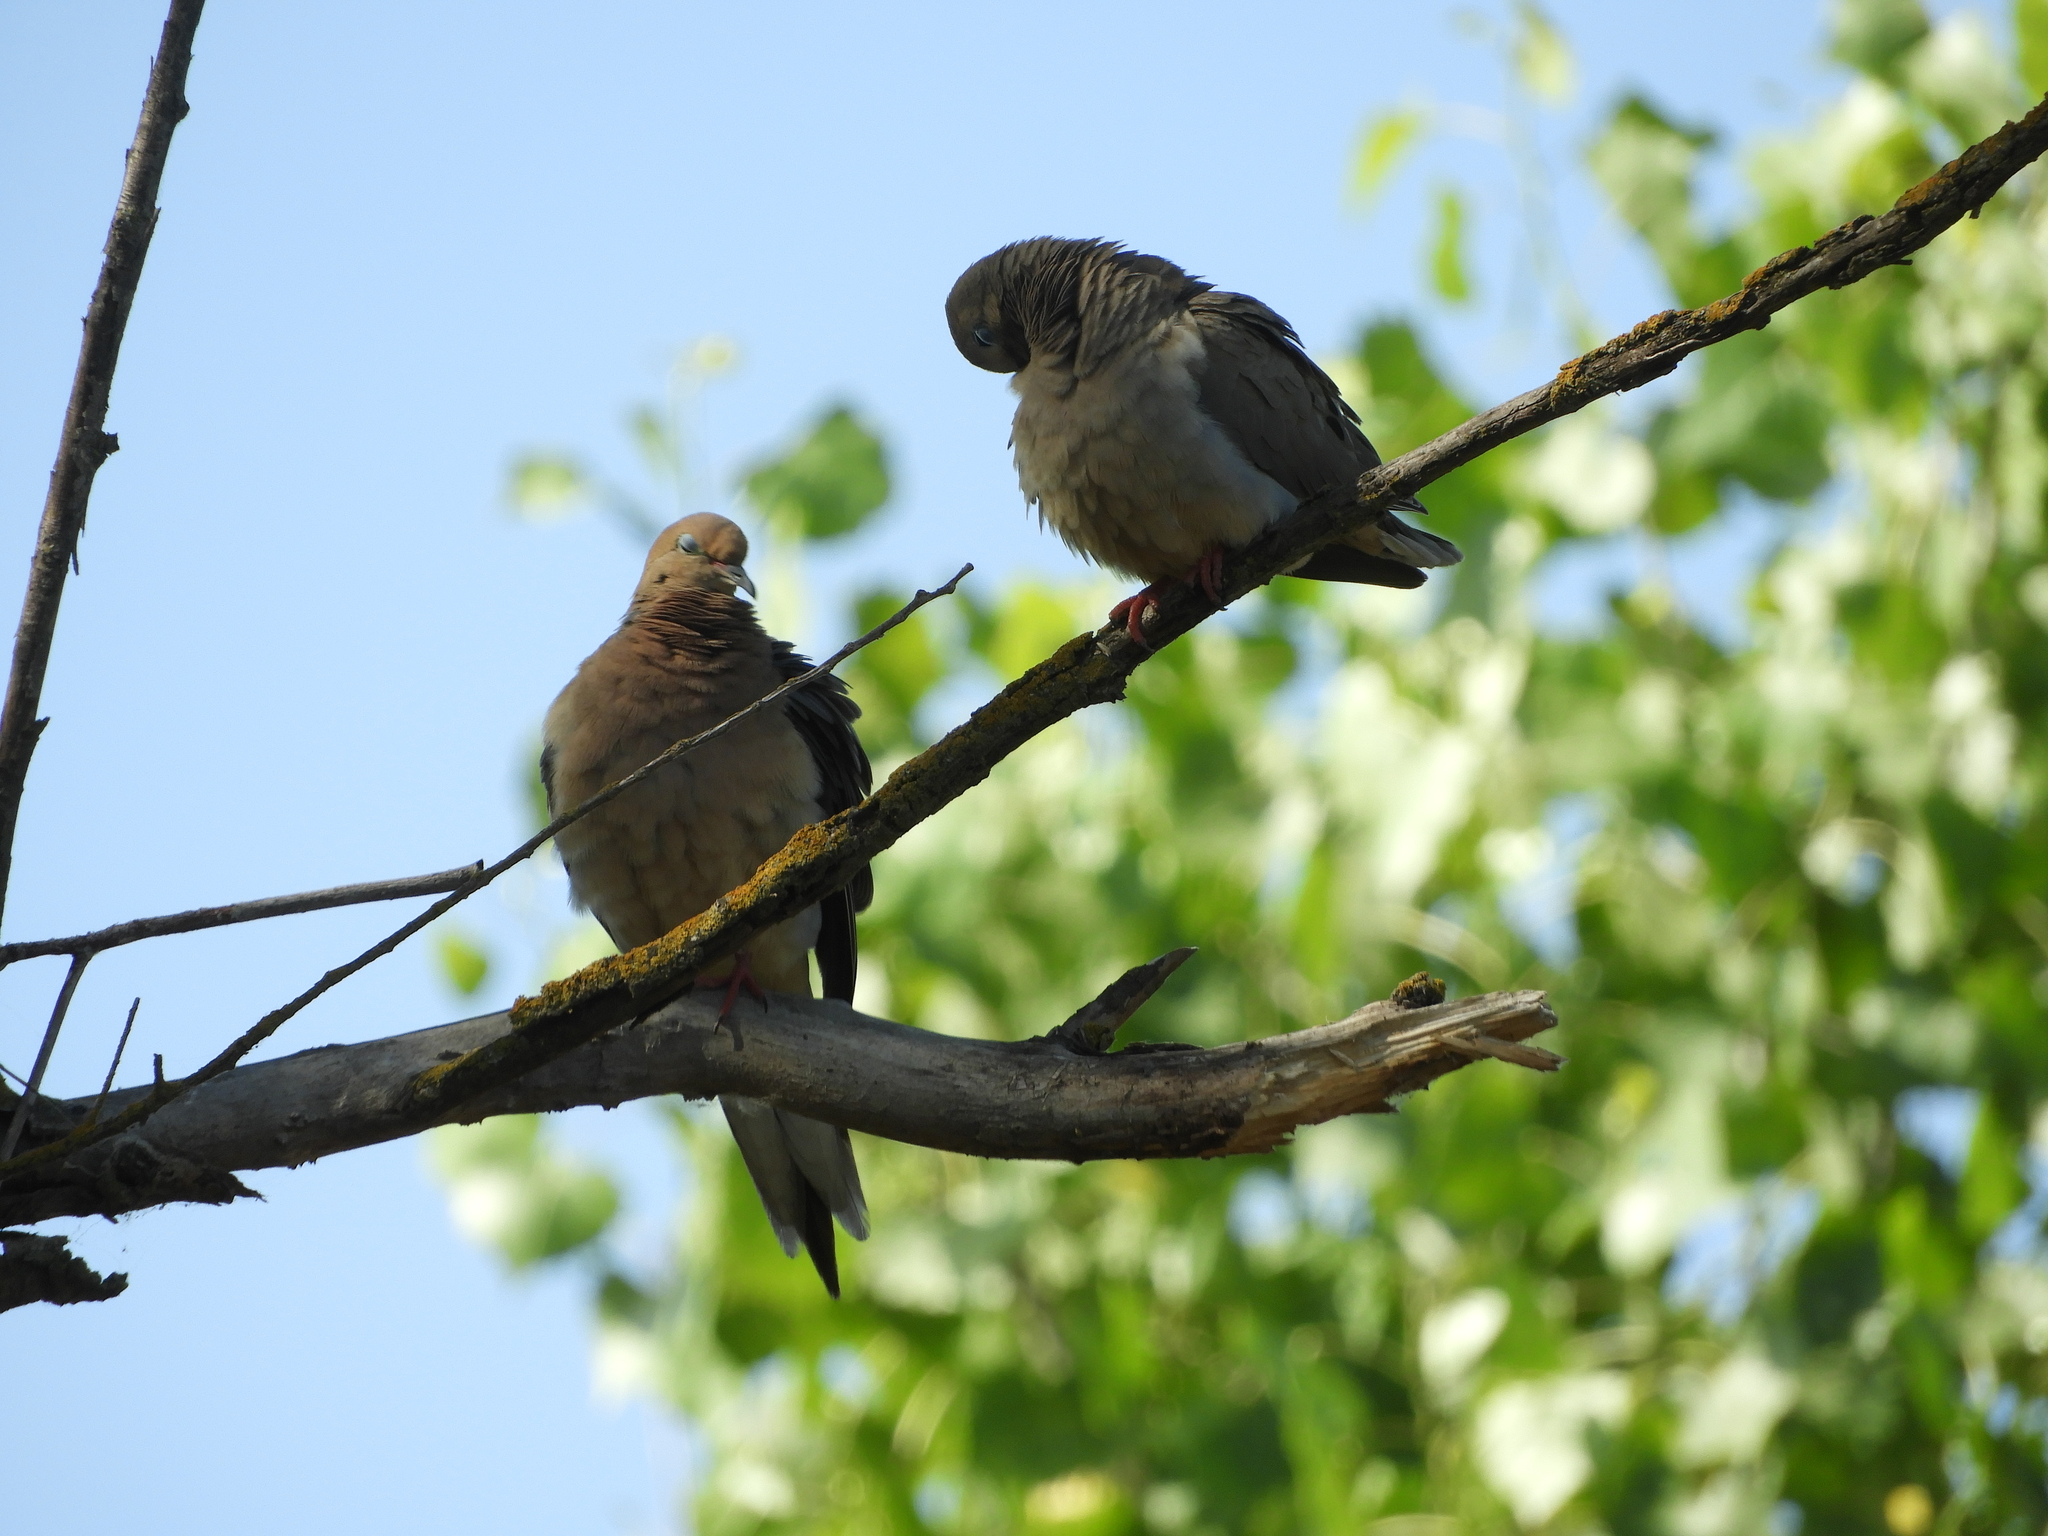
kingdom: Animalia
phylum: Chordata
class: Aves
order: Columbiformes
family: Columbidae
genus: Zenaida
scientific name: Zenaida macroura
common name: Mourning dove
